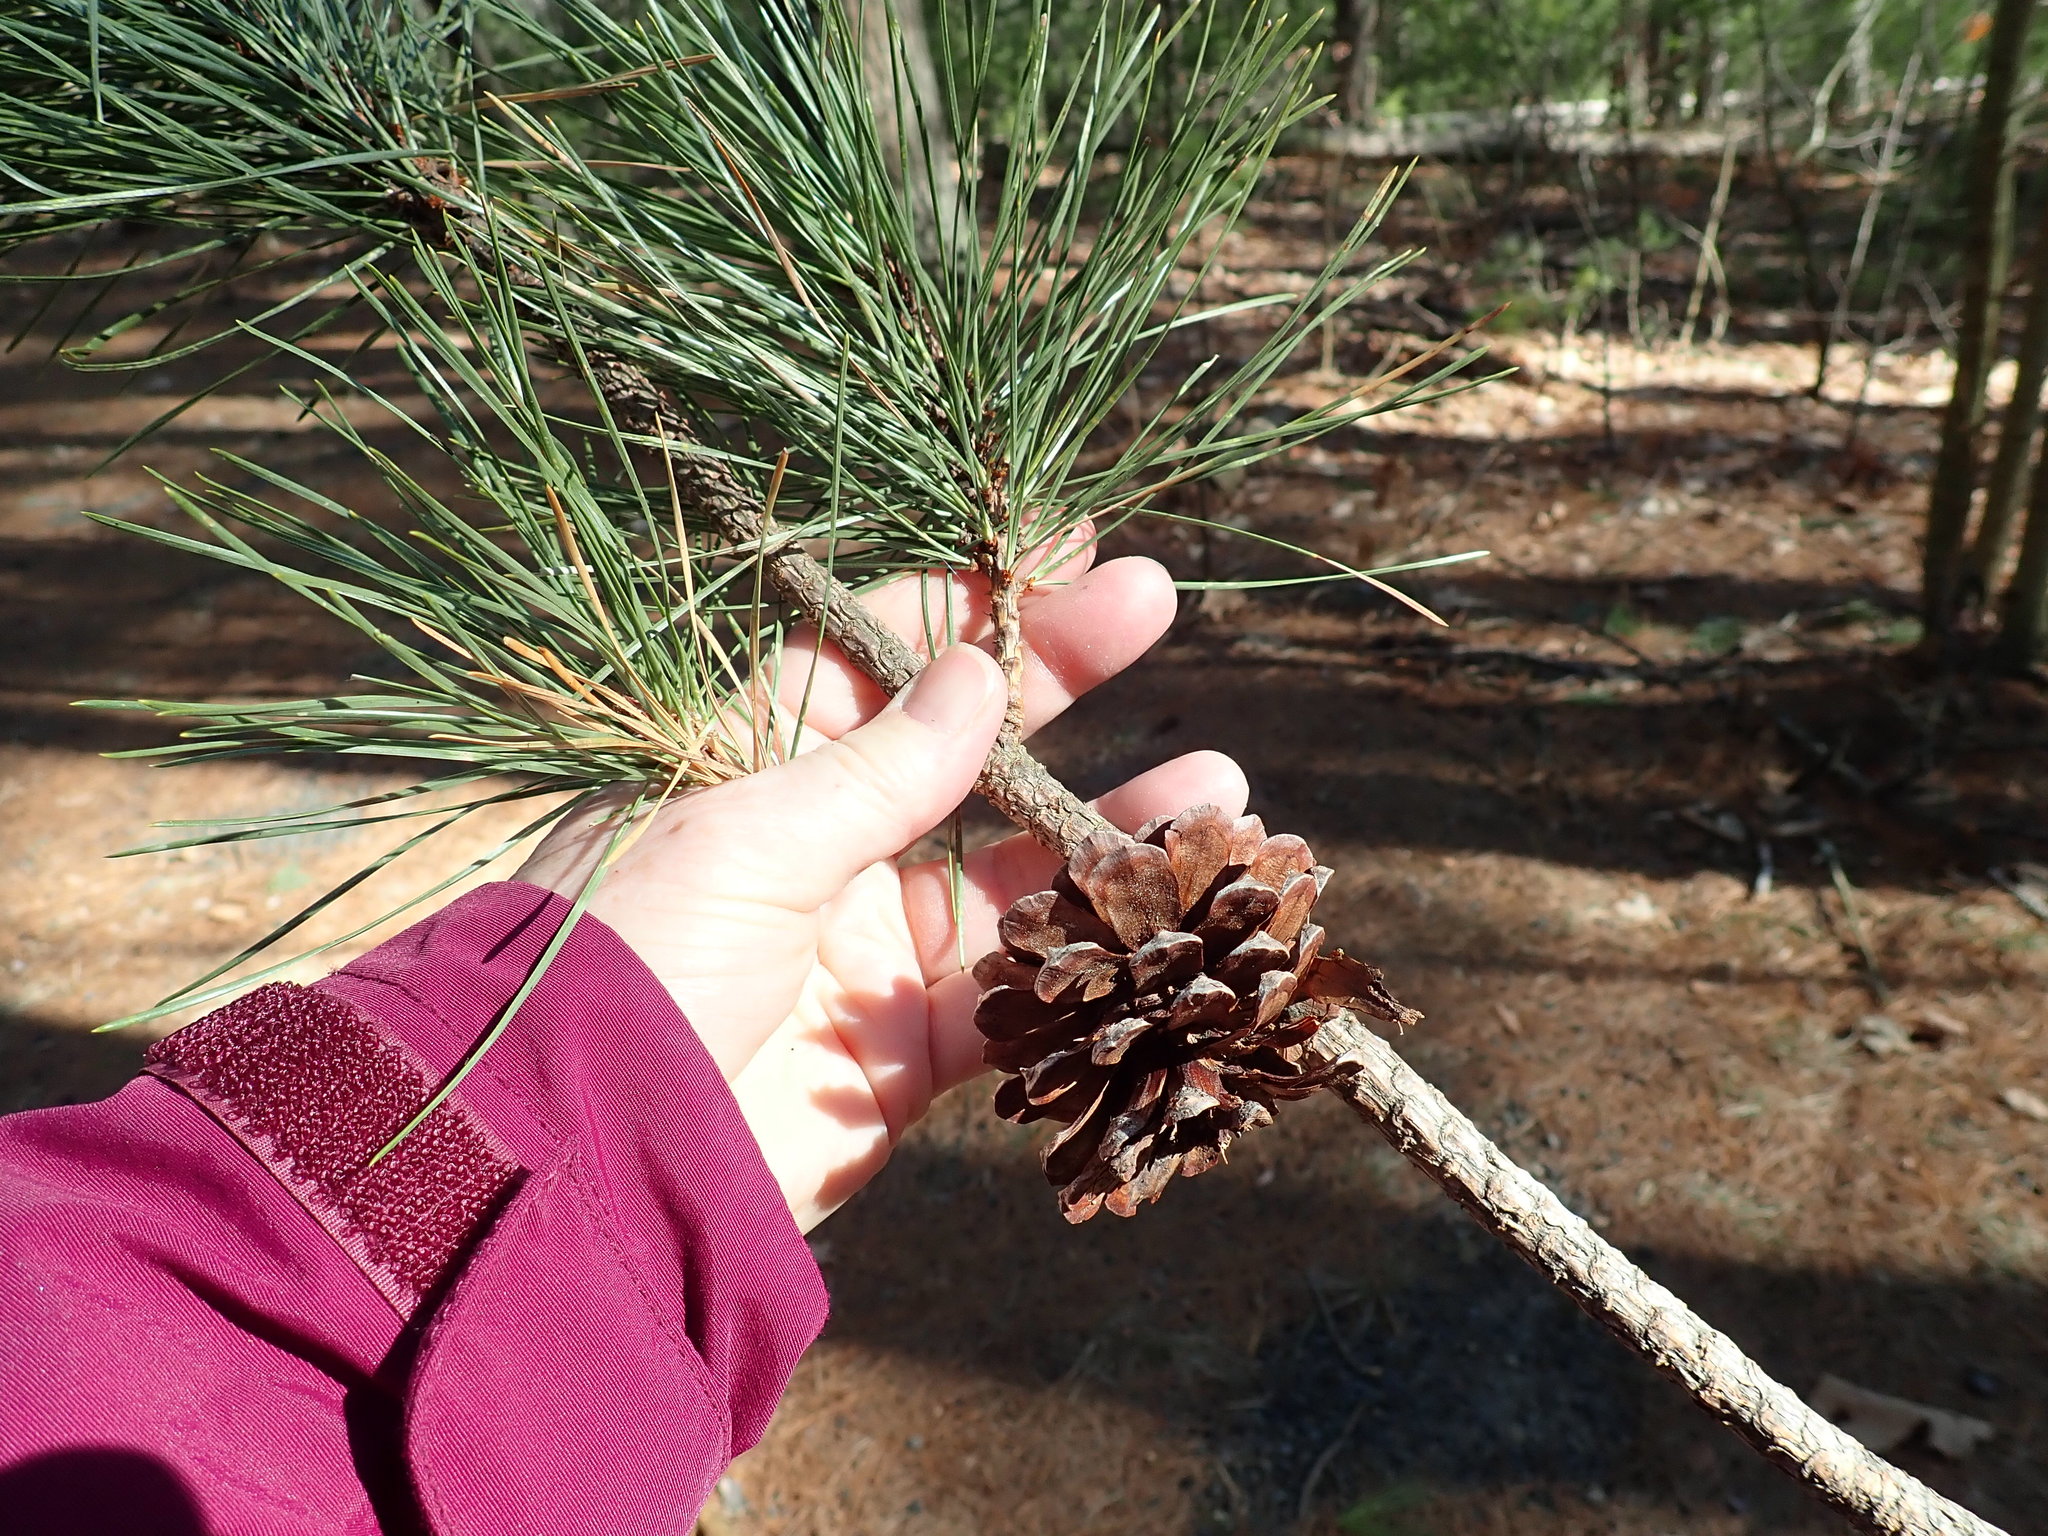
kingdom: Plantae
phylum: Tracheophyta
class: Pinopsida
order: Pinales
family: Pinaceae
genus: Pinus
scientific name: Pinus rigida
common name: Pitch pine
